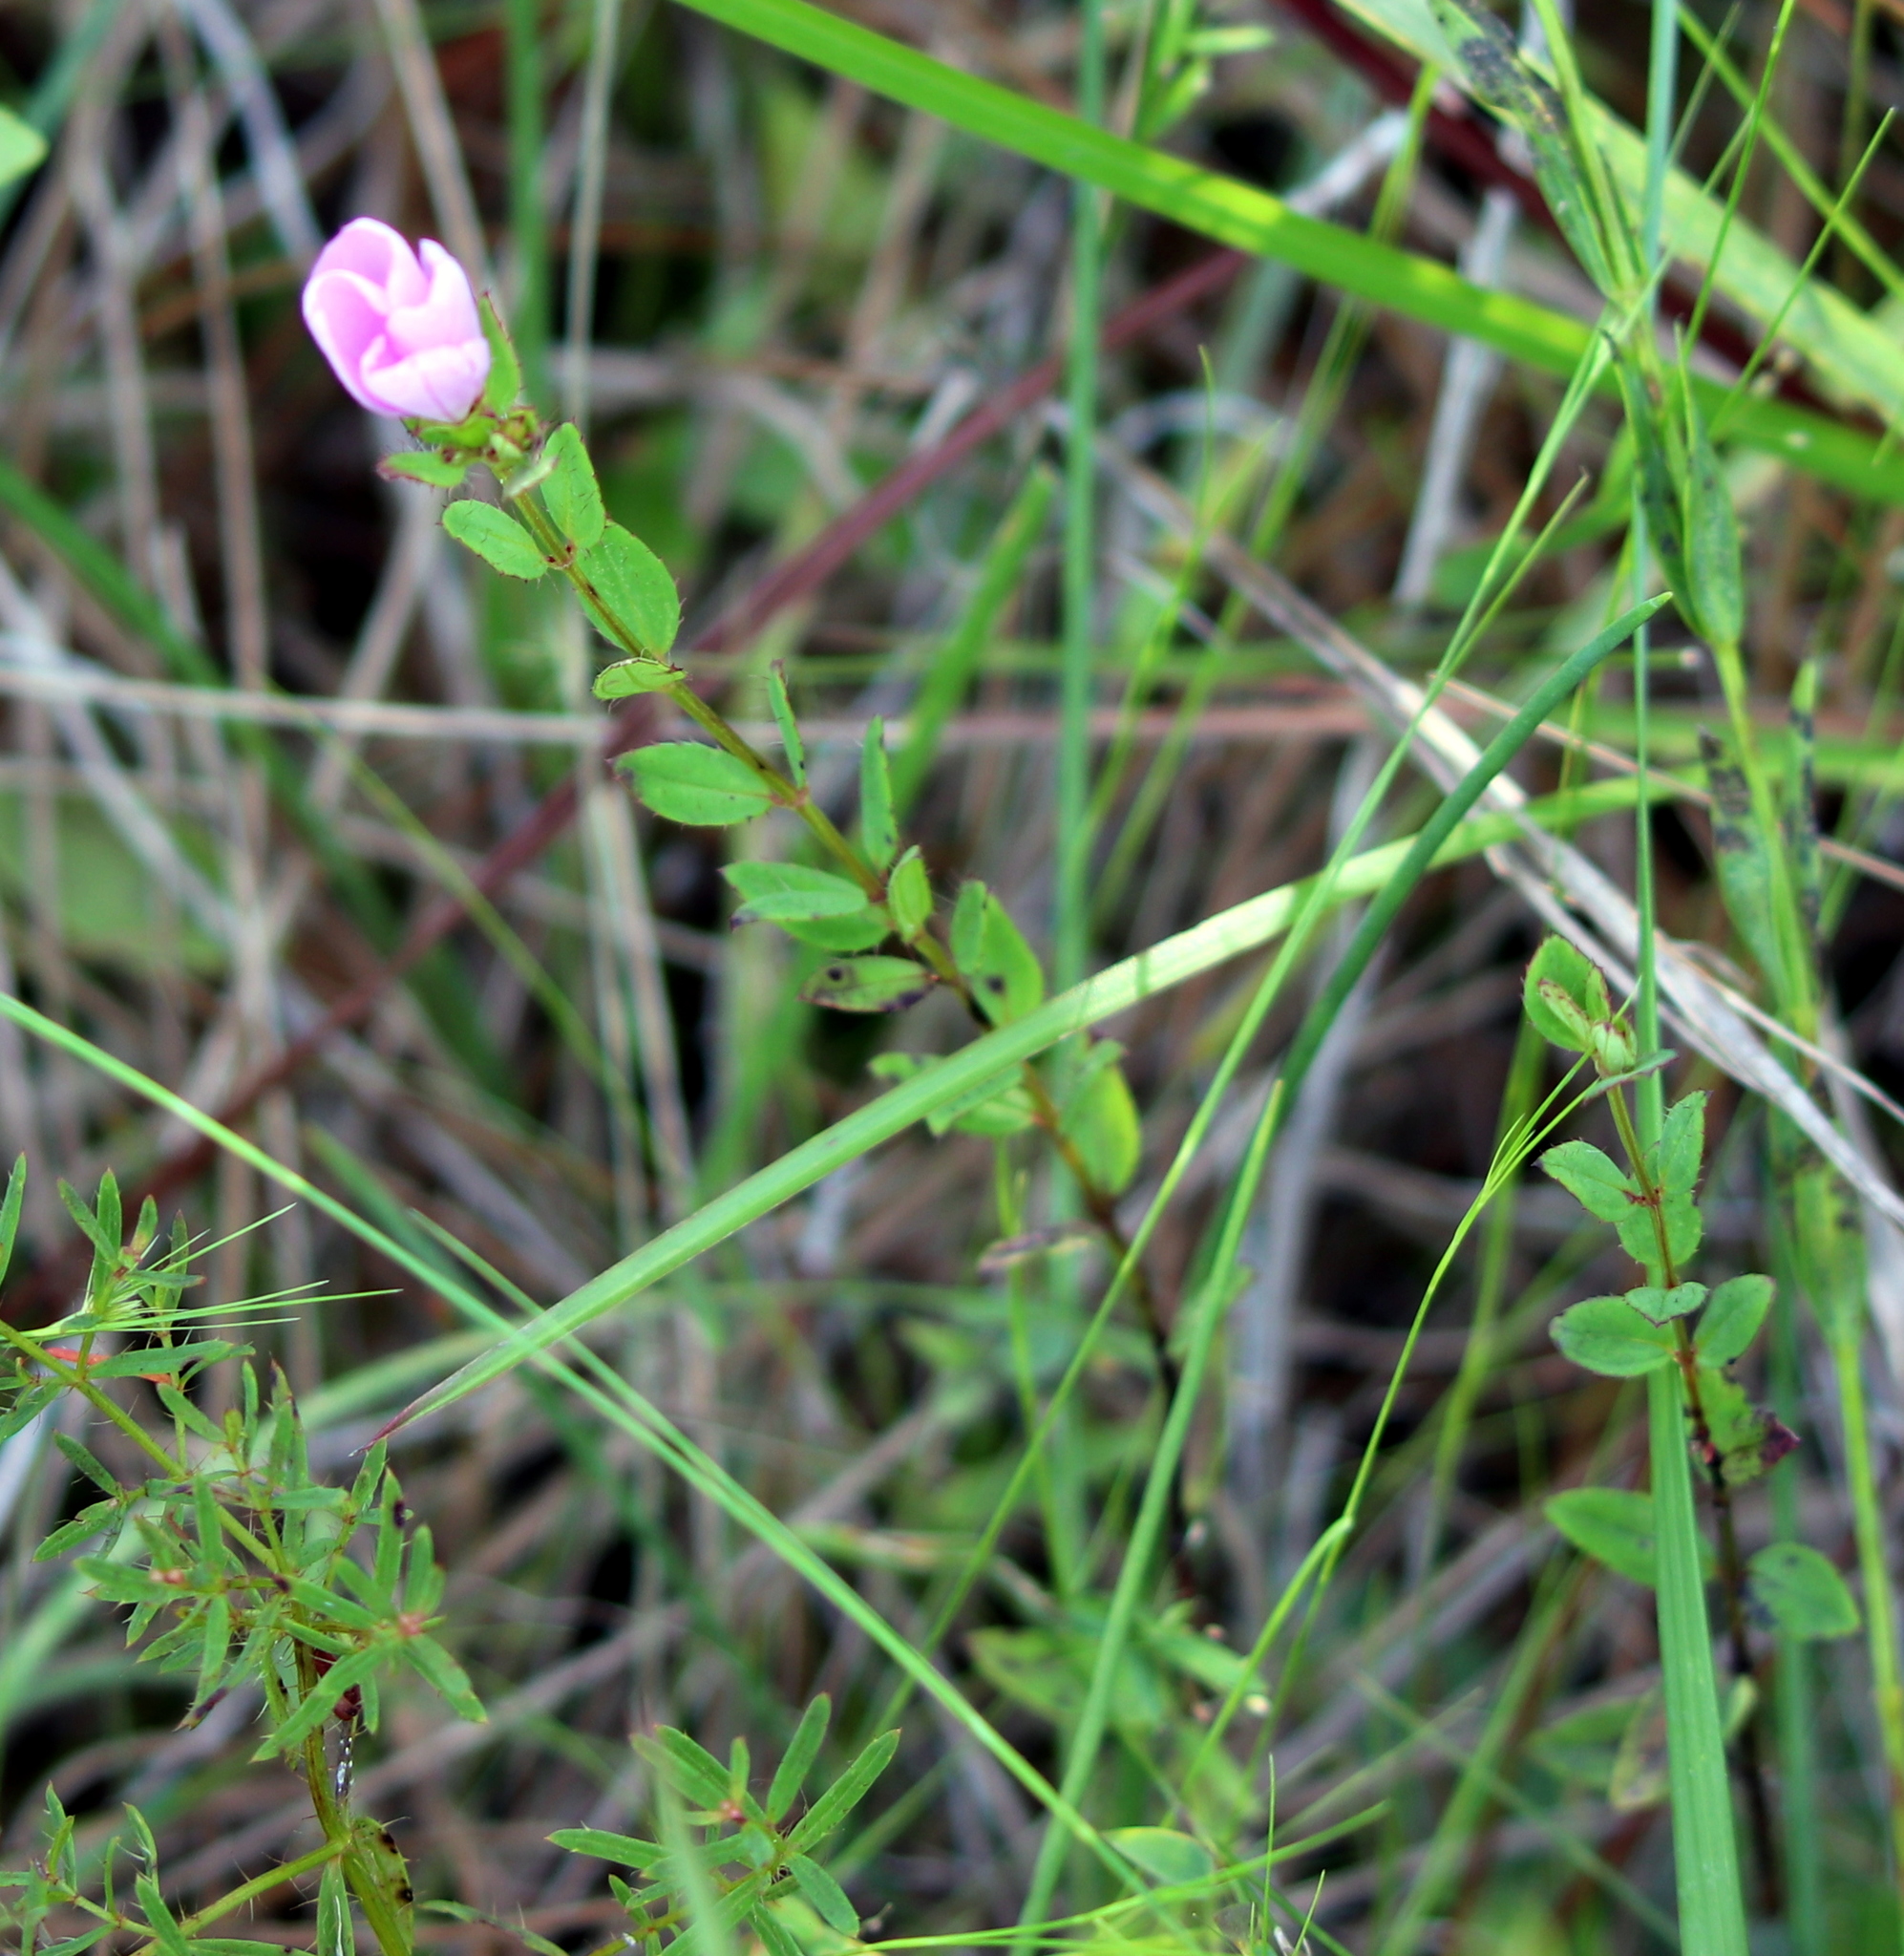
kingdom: Plantae
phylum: Tracheophyta
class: Magnoliopsida
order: Myrtales
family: Melastomataceae
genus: Rhexia
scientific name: Rhexia petiolata
